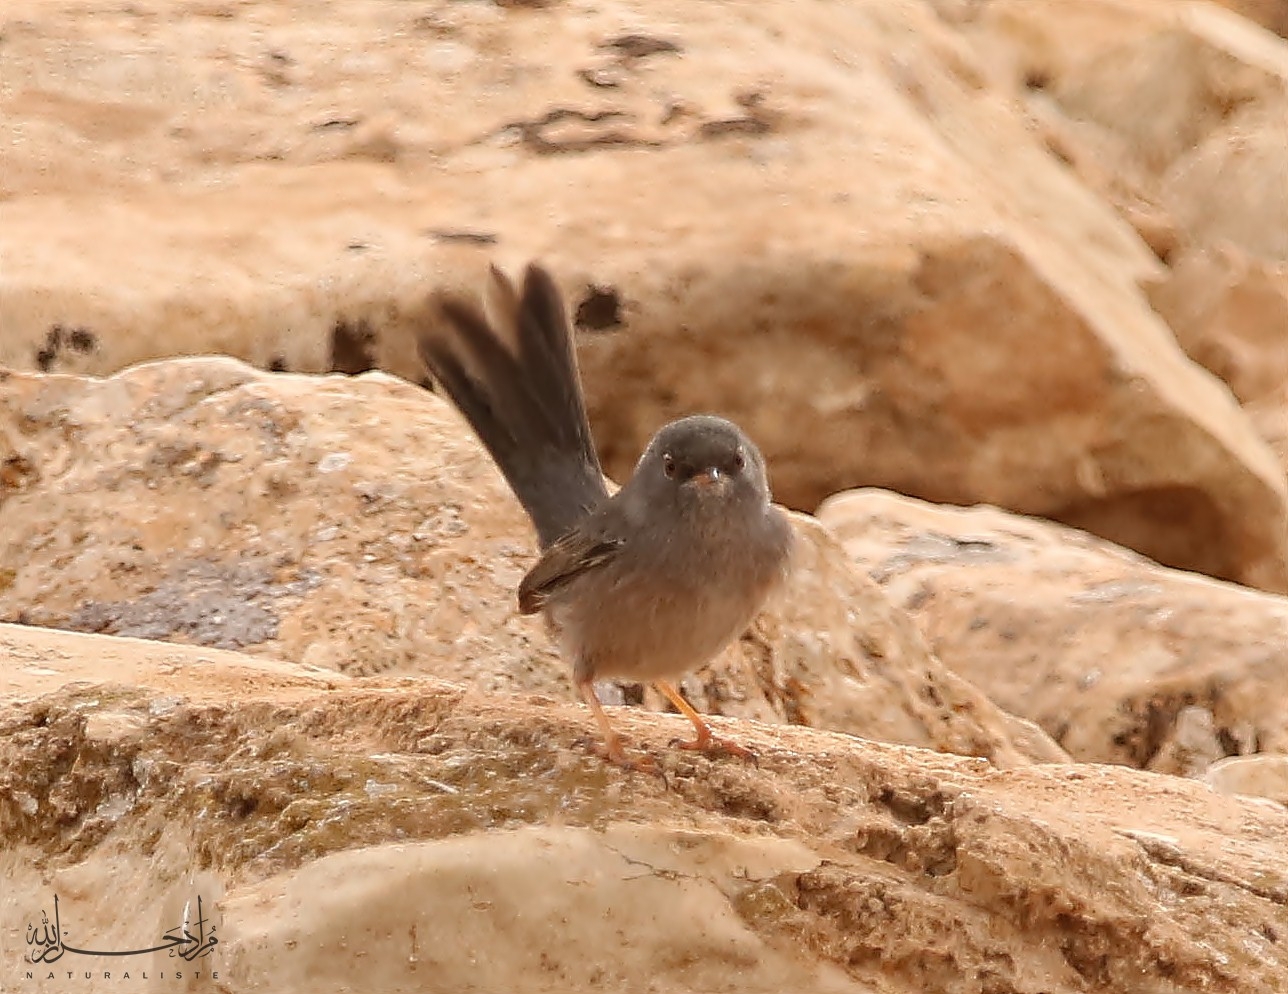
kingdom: Animalia
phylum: Chordata
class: Aves
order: Passeriformes
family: Sylviidae
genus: Sylvia
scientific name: Sylvia sarda
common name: Marmora's warbler
